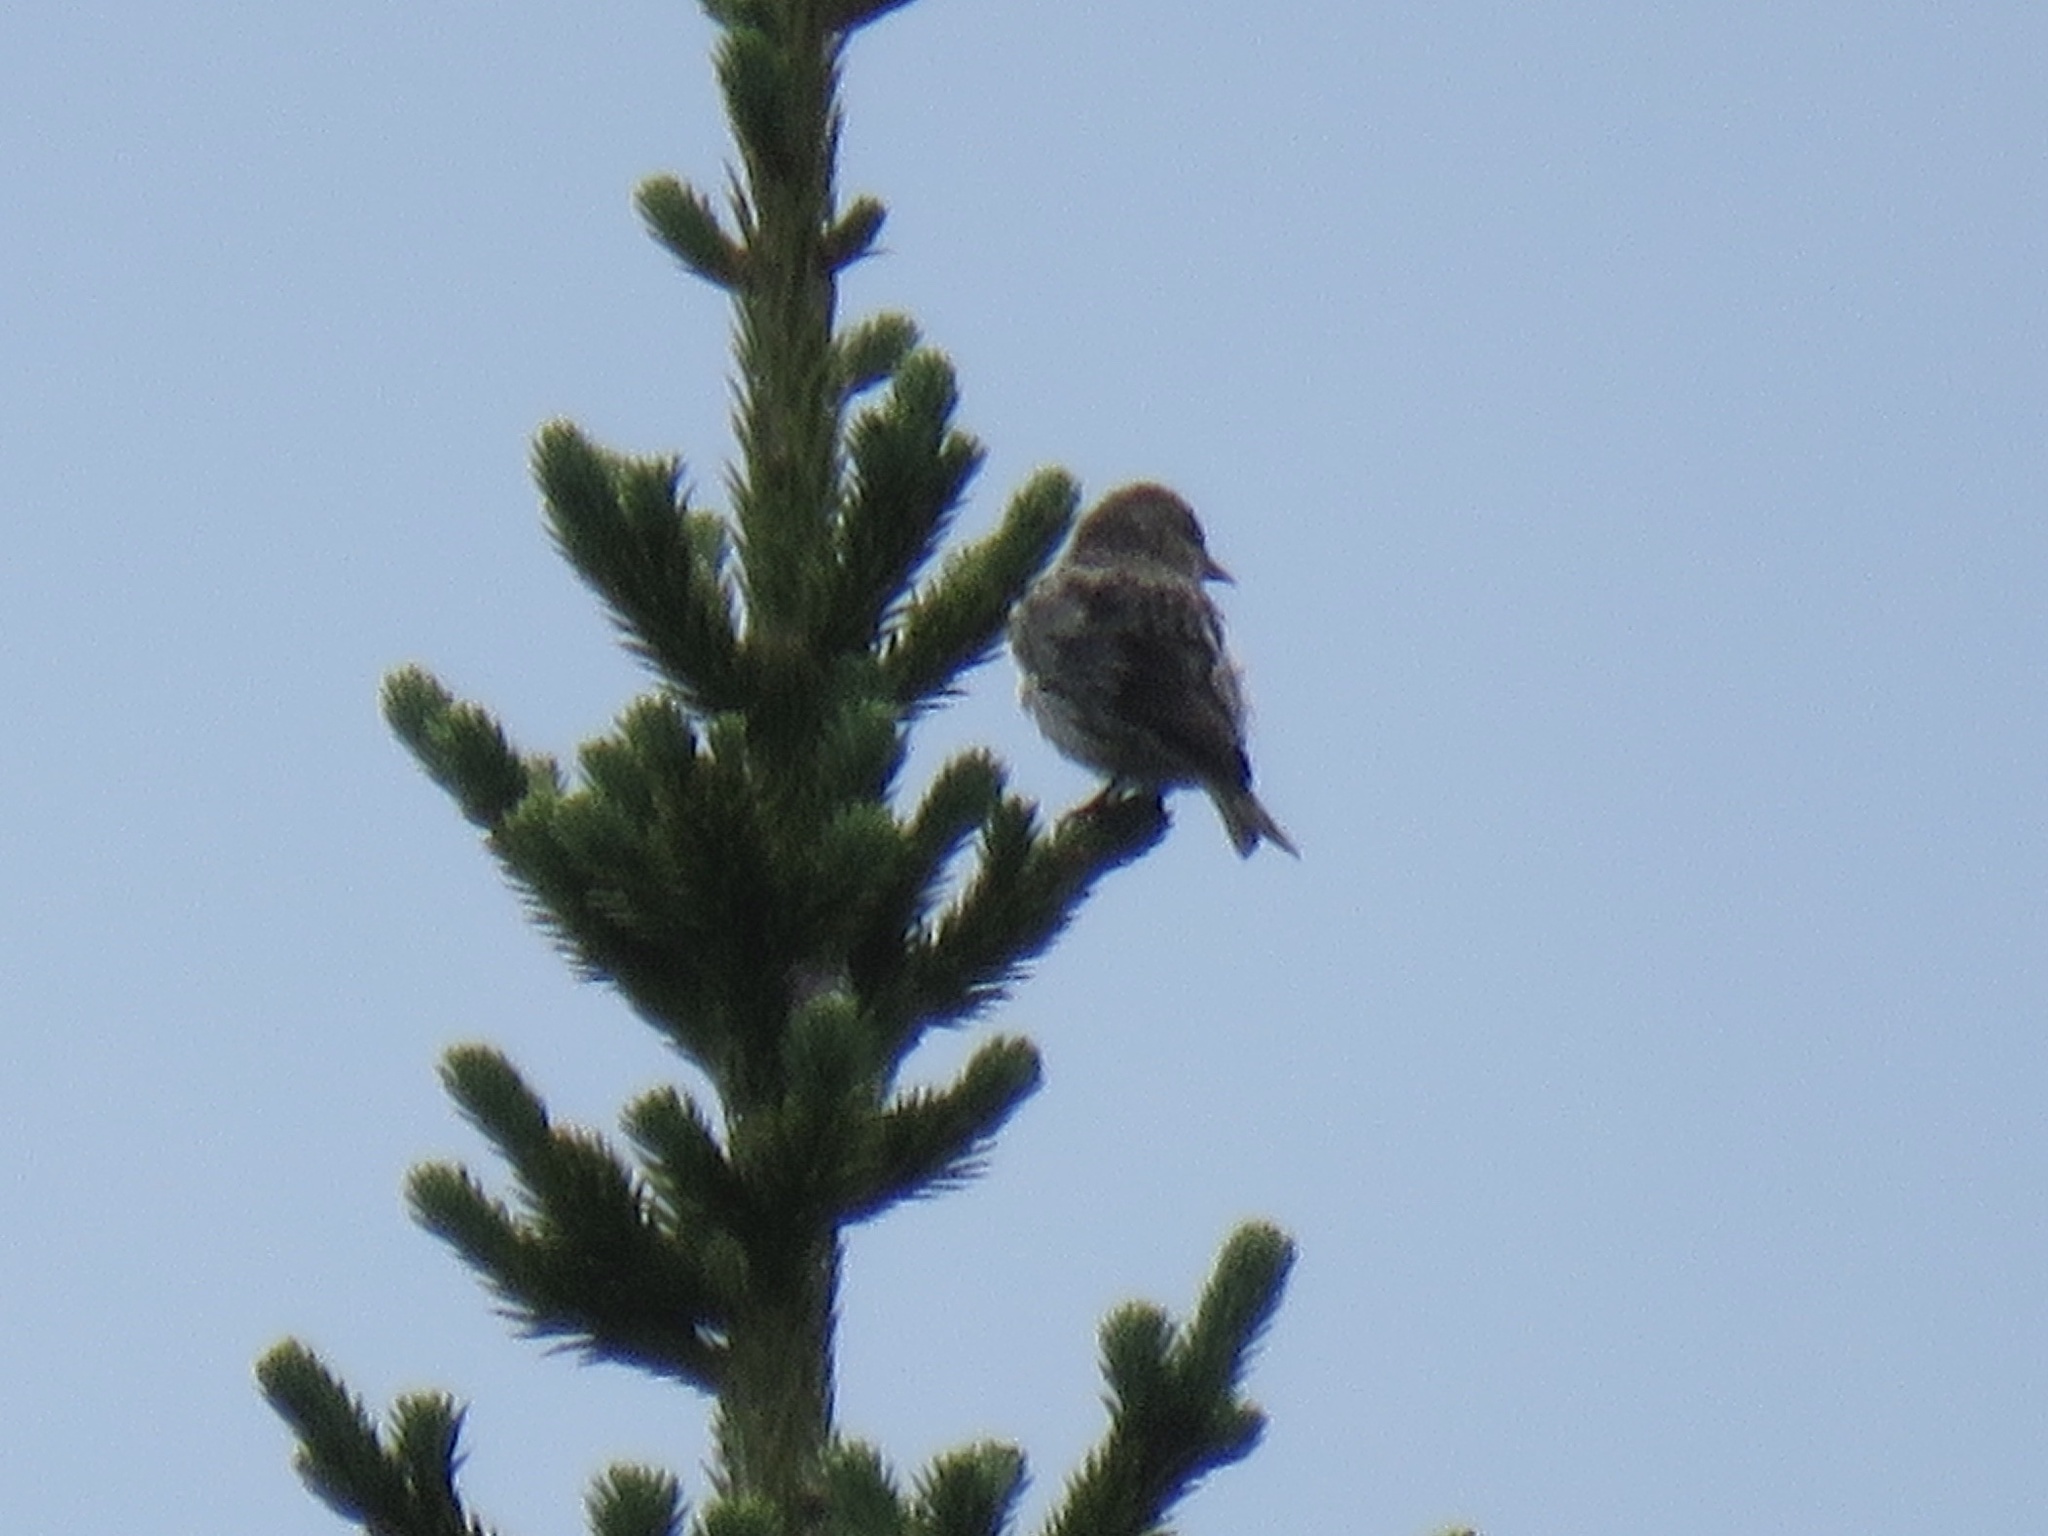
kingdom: Animalia
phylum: Chordata
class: Aves
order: Passeriformes
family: Fringillidae
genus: Spinus
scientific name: Spinus pinus
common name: Pine siskin
